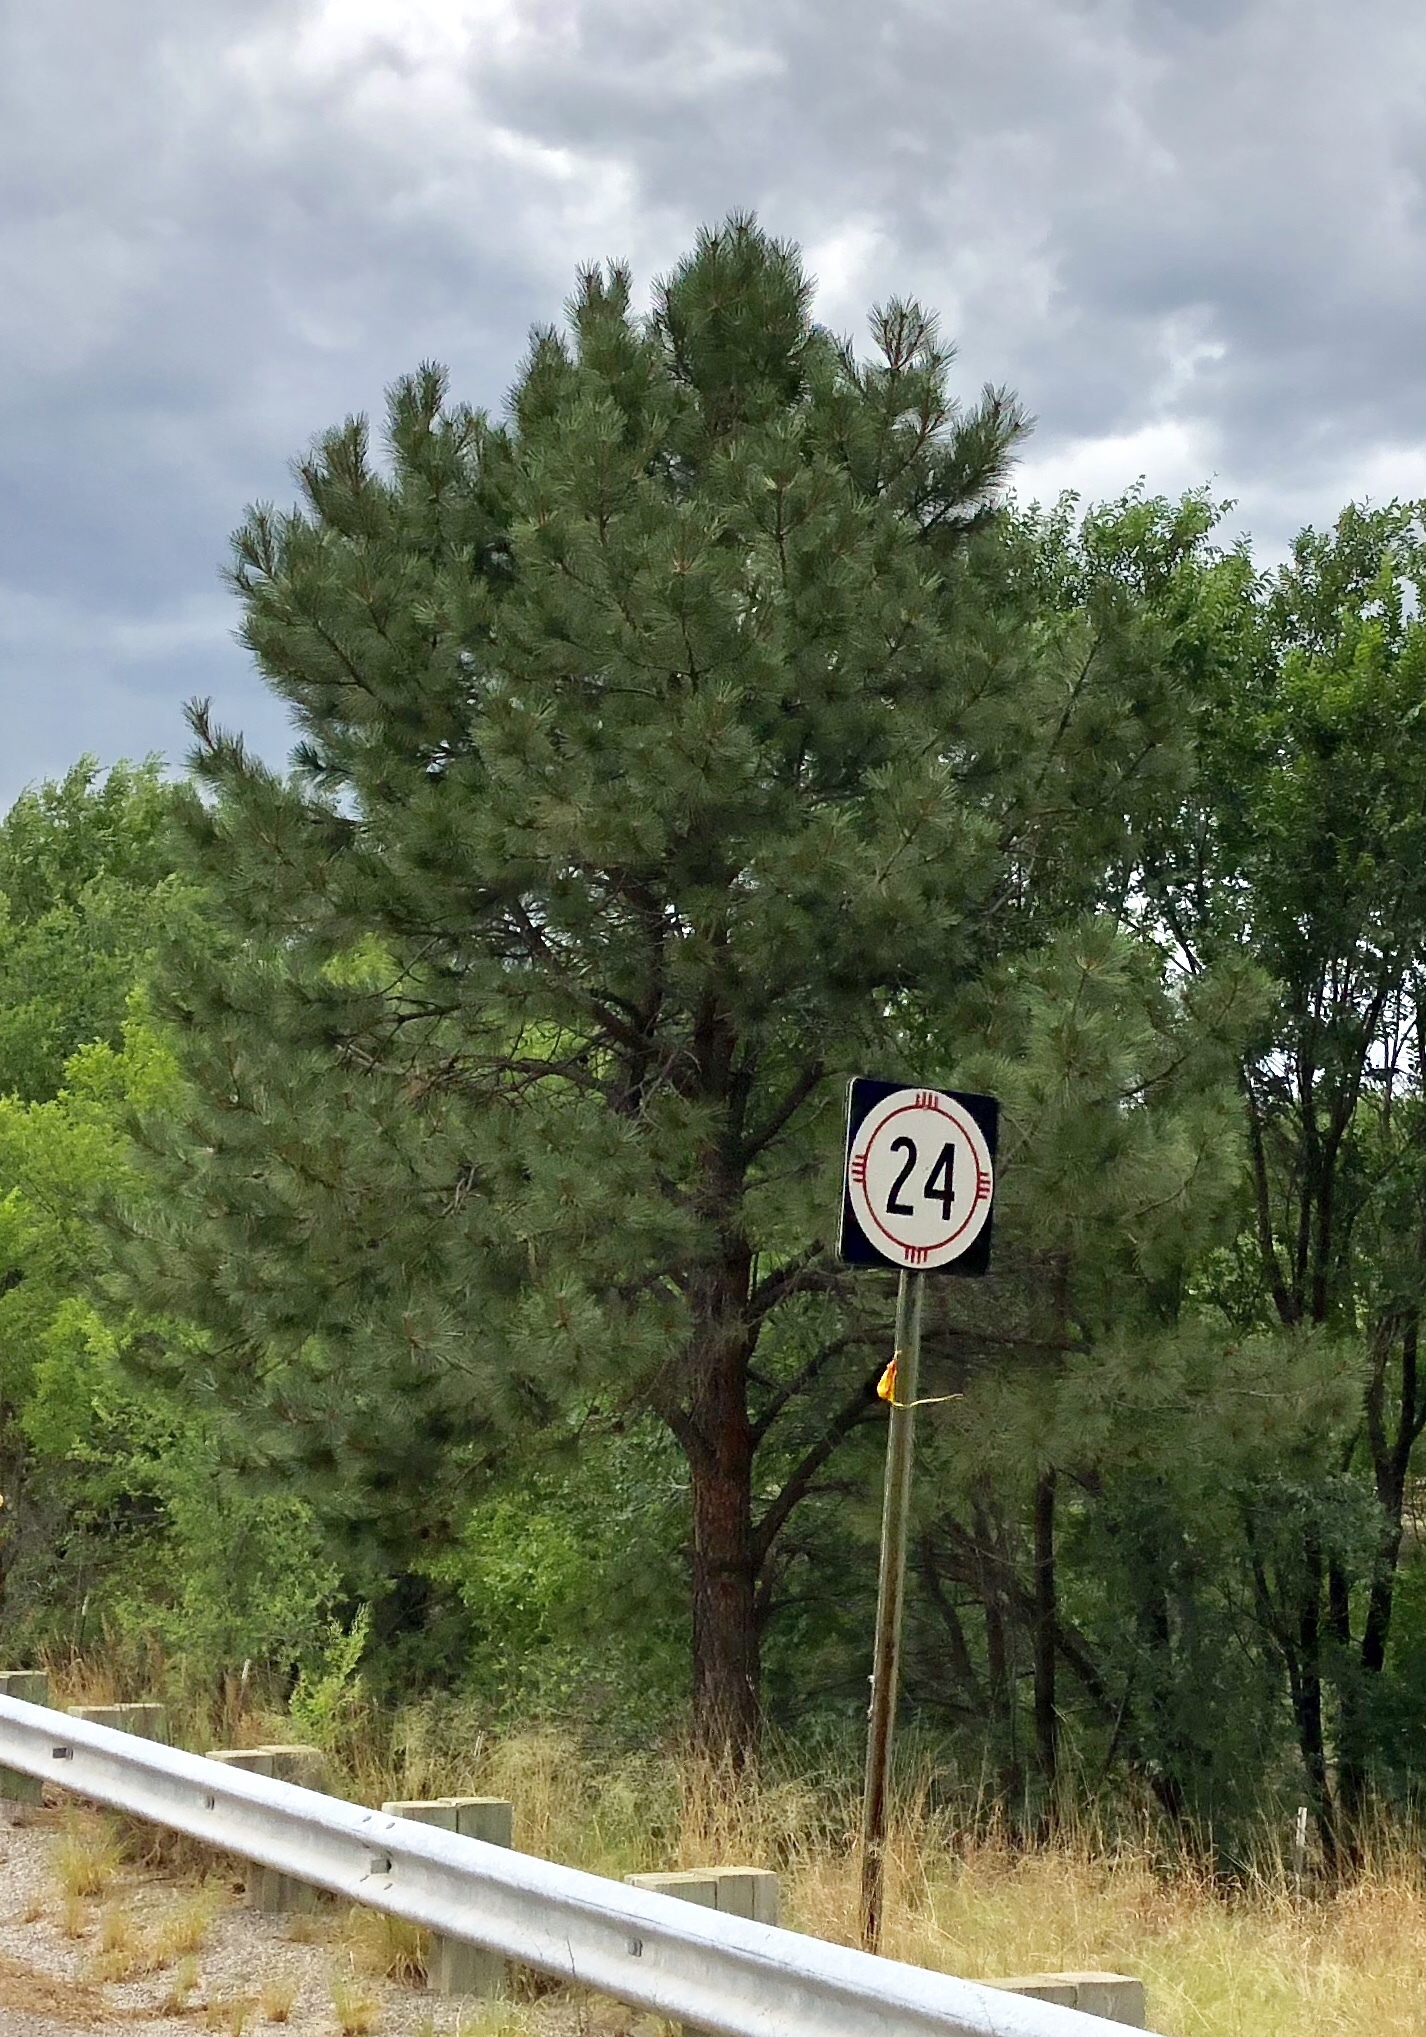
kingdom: Plantae
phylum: Tracheophyta
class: Pinopsida
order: Pinales
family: Pinaceae
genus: Pinus
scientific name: Pinus ponderosa
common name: Western yellow-pine
